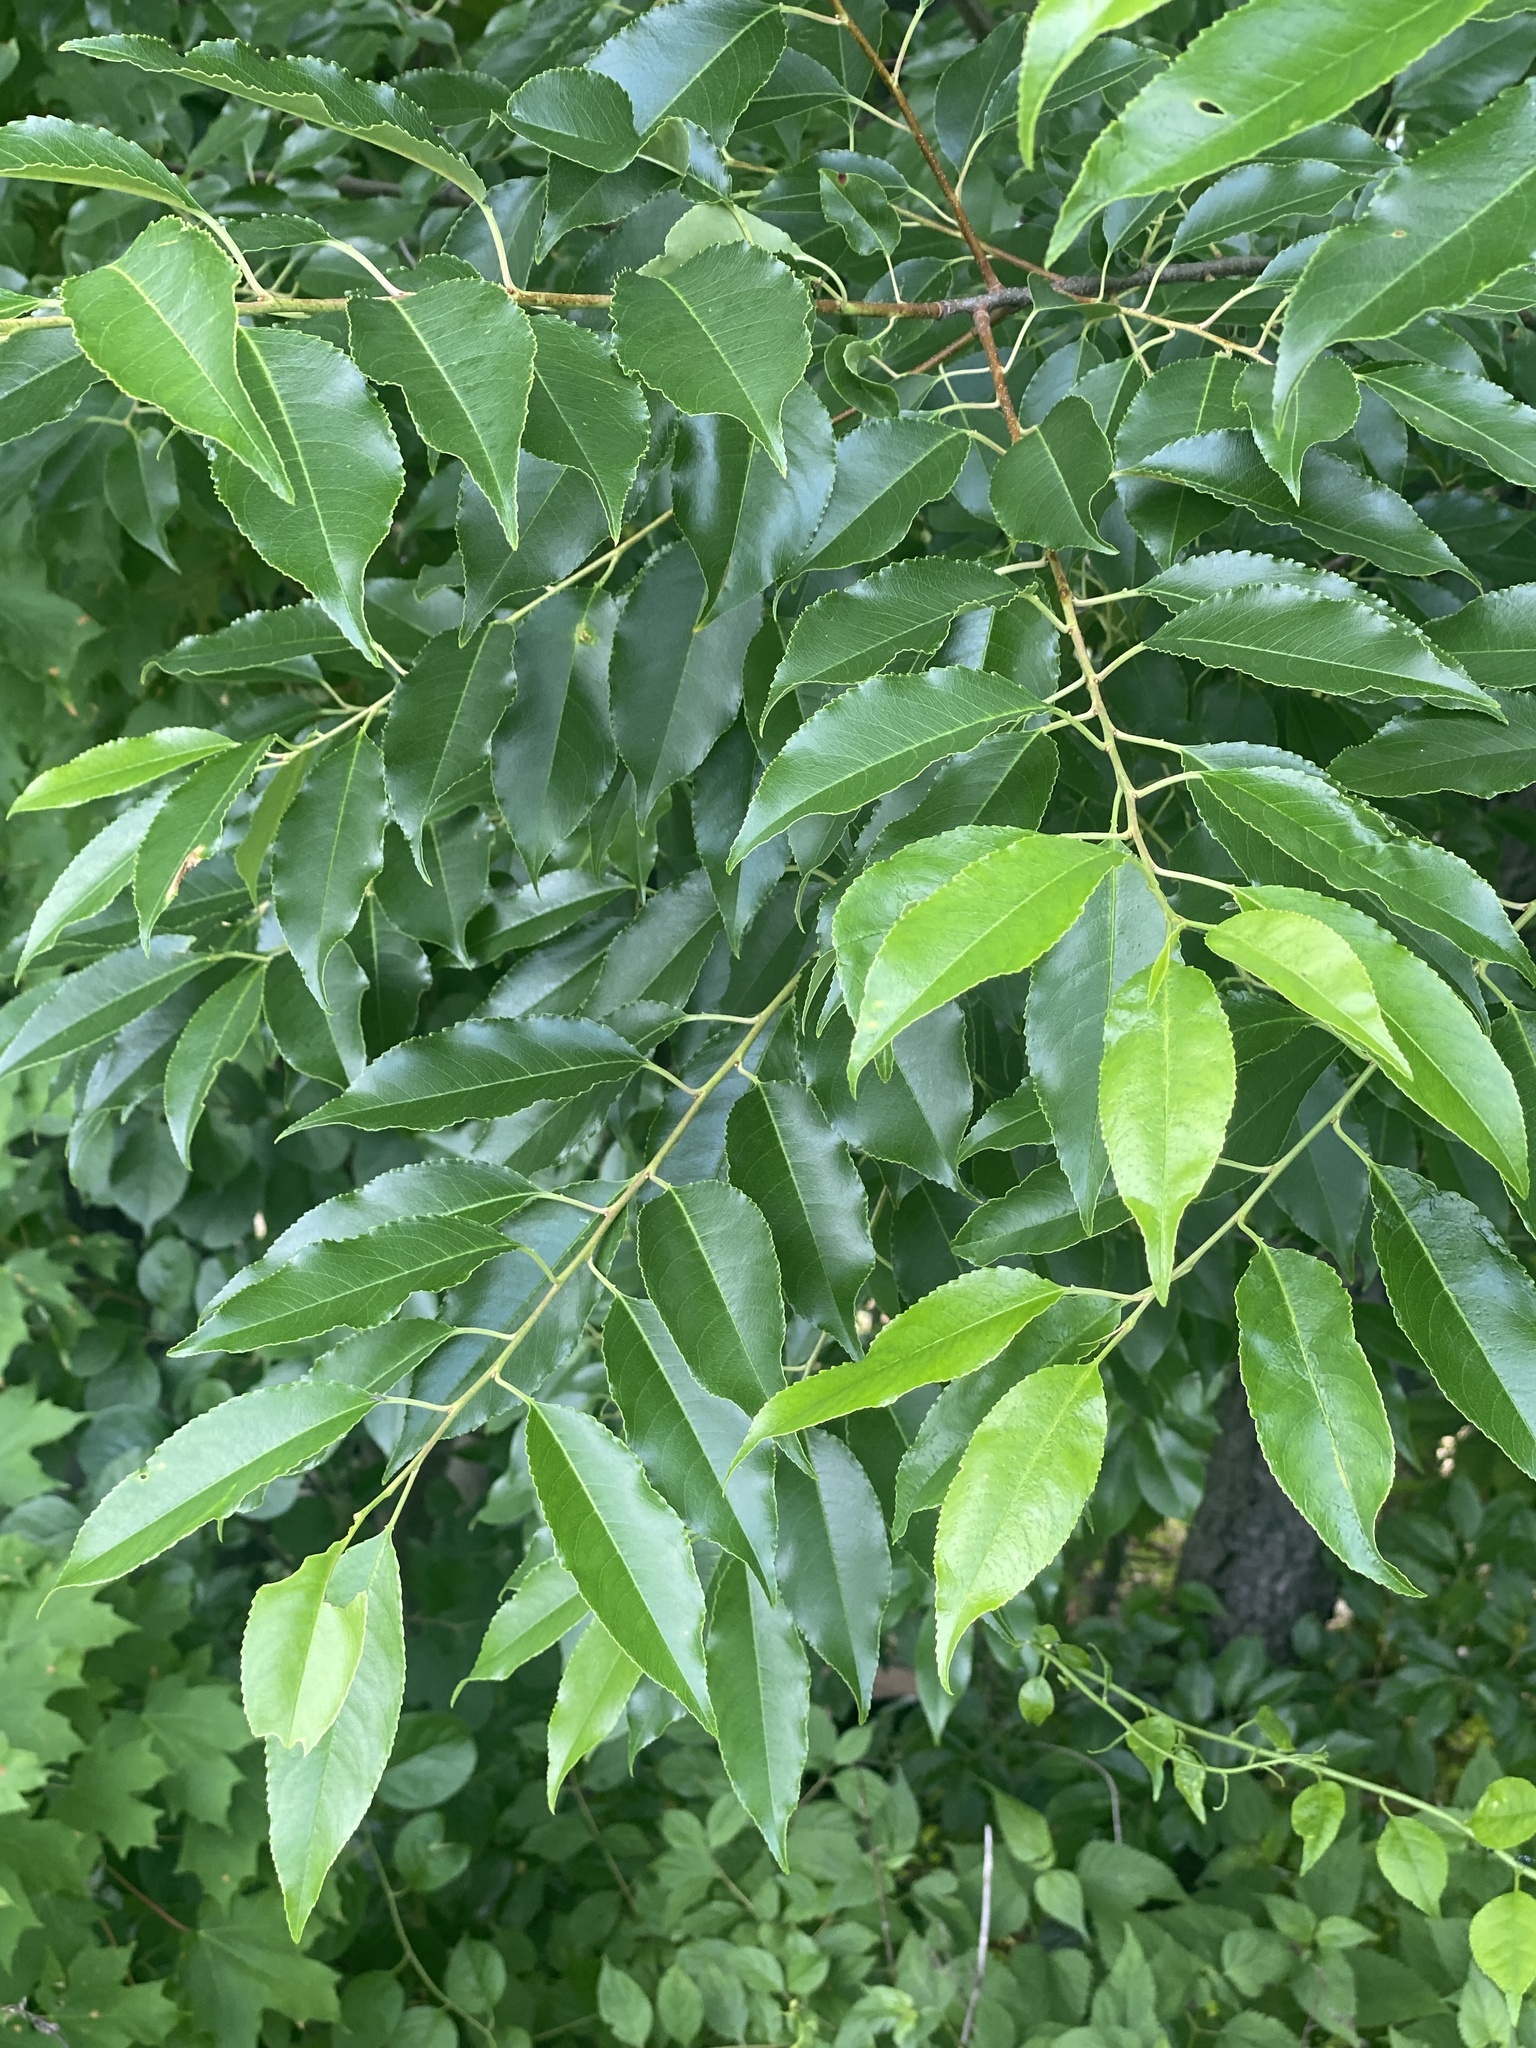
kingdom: Plantae
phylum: Tracheophyta
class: Magnoliopsida
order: Rosales
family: Rosaceae
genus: Prunus
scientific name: Prunus serotina
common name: Black cherry
